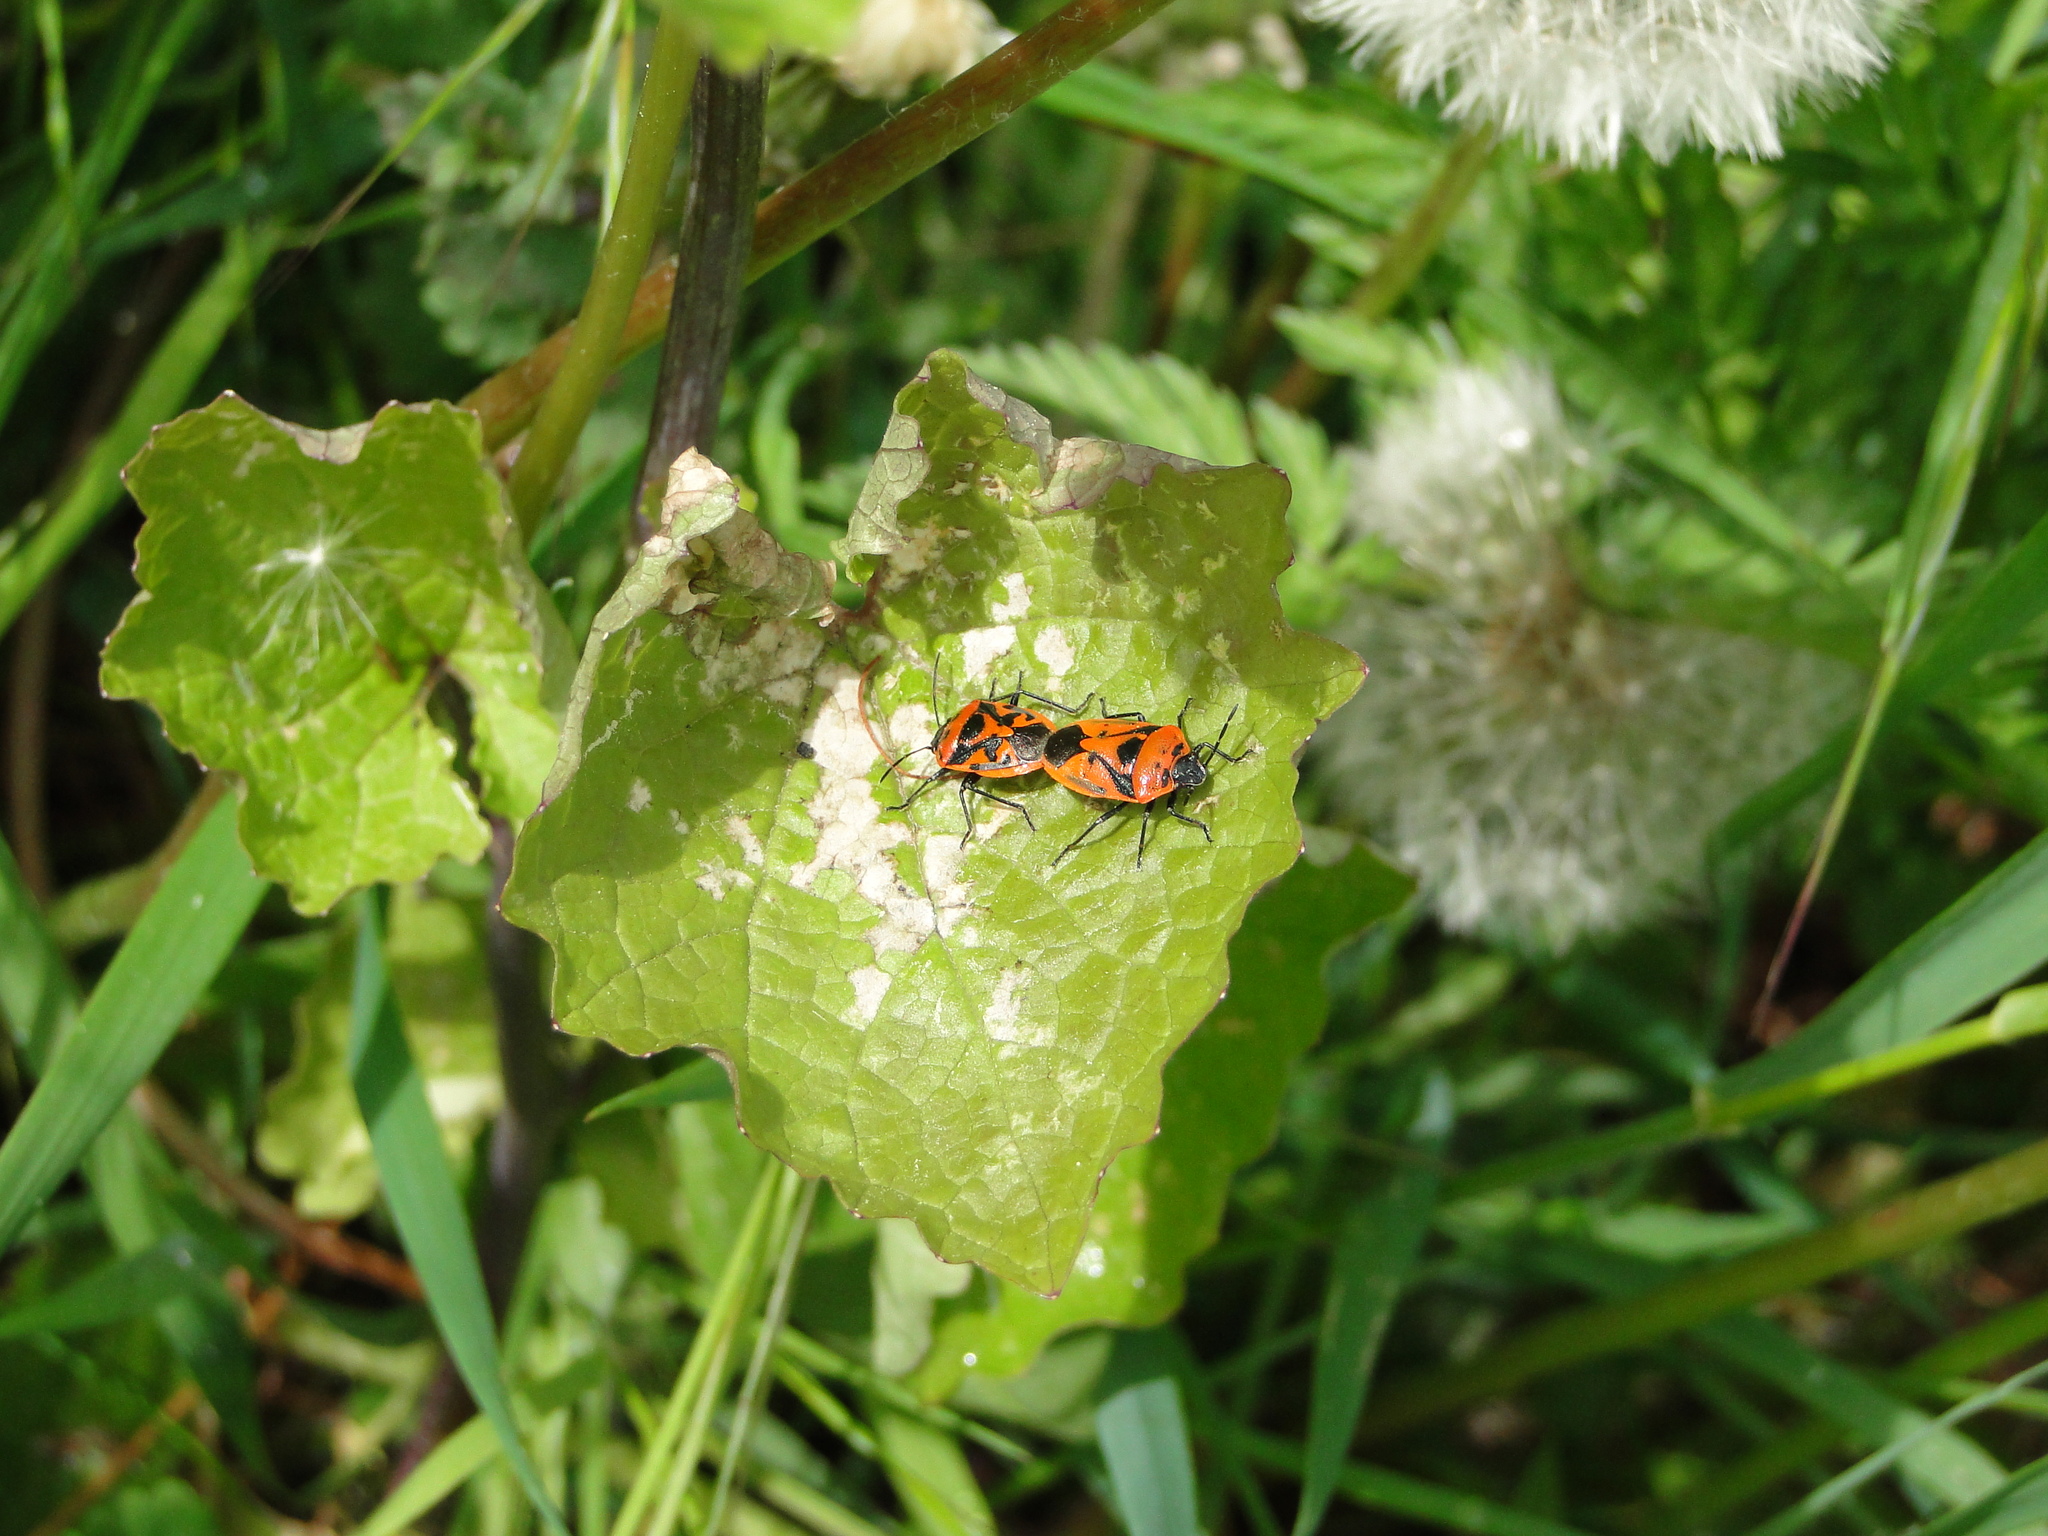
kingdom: Animalia
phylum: Arthropoda
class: Insecta
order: Hemiptera
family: Pentatomidae
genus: Eurydema
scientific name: Eurydema ornata
